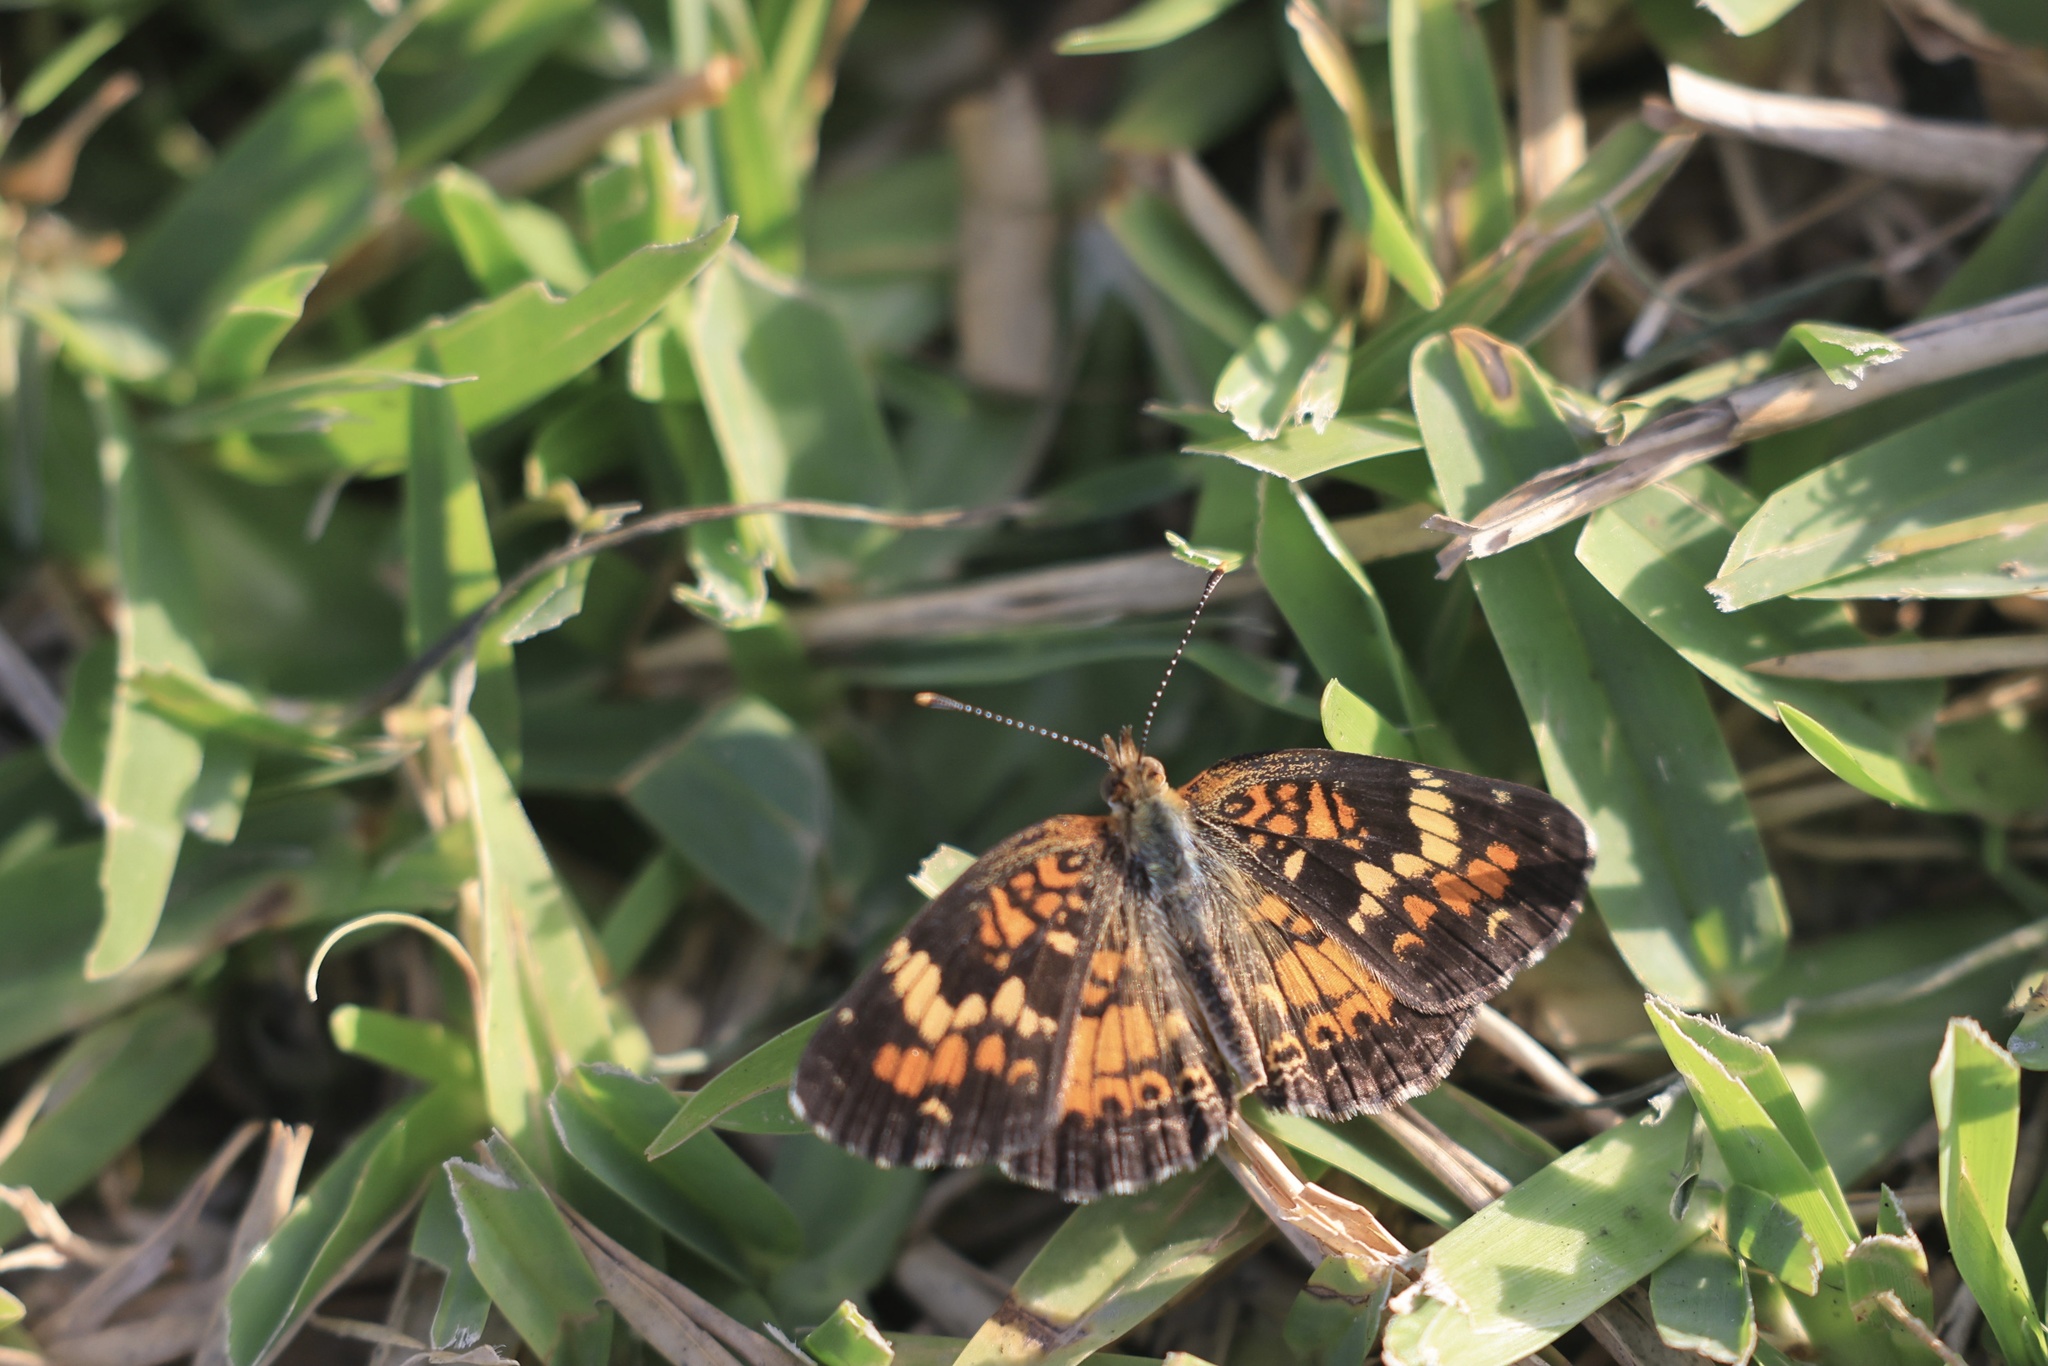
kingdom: Animalia
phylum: Arthropoda
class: Insecta
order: Lepidoptera
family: Nymphalidae
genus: Phyciodes
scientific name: Phyciodes phaon
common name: Phaon crescent
